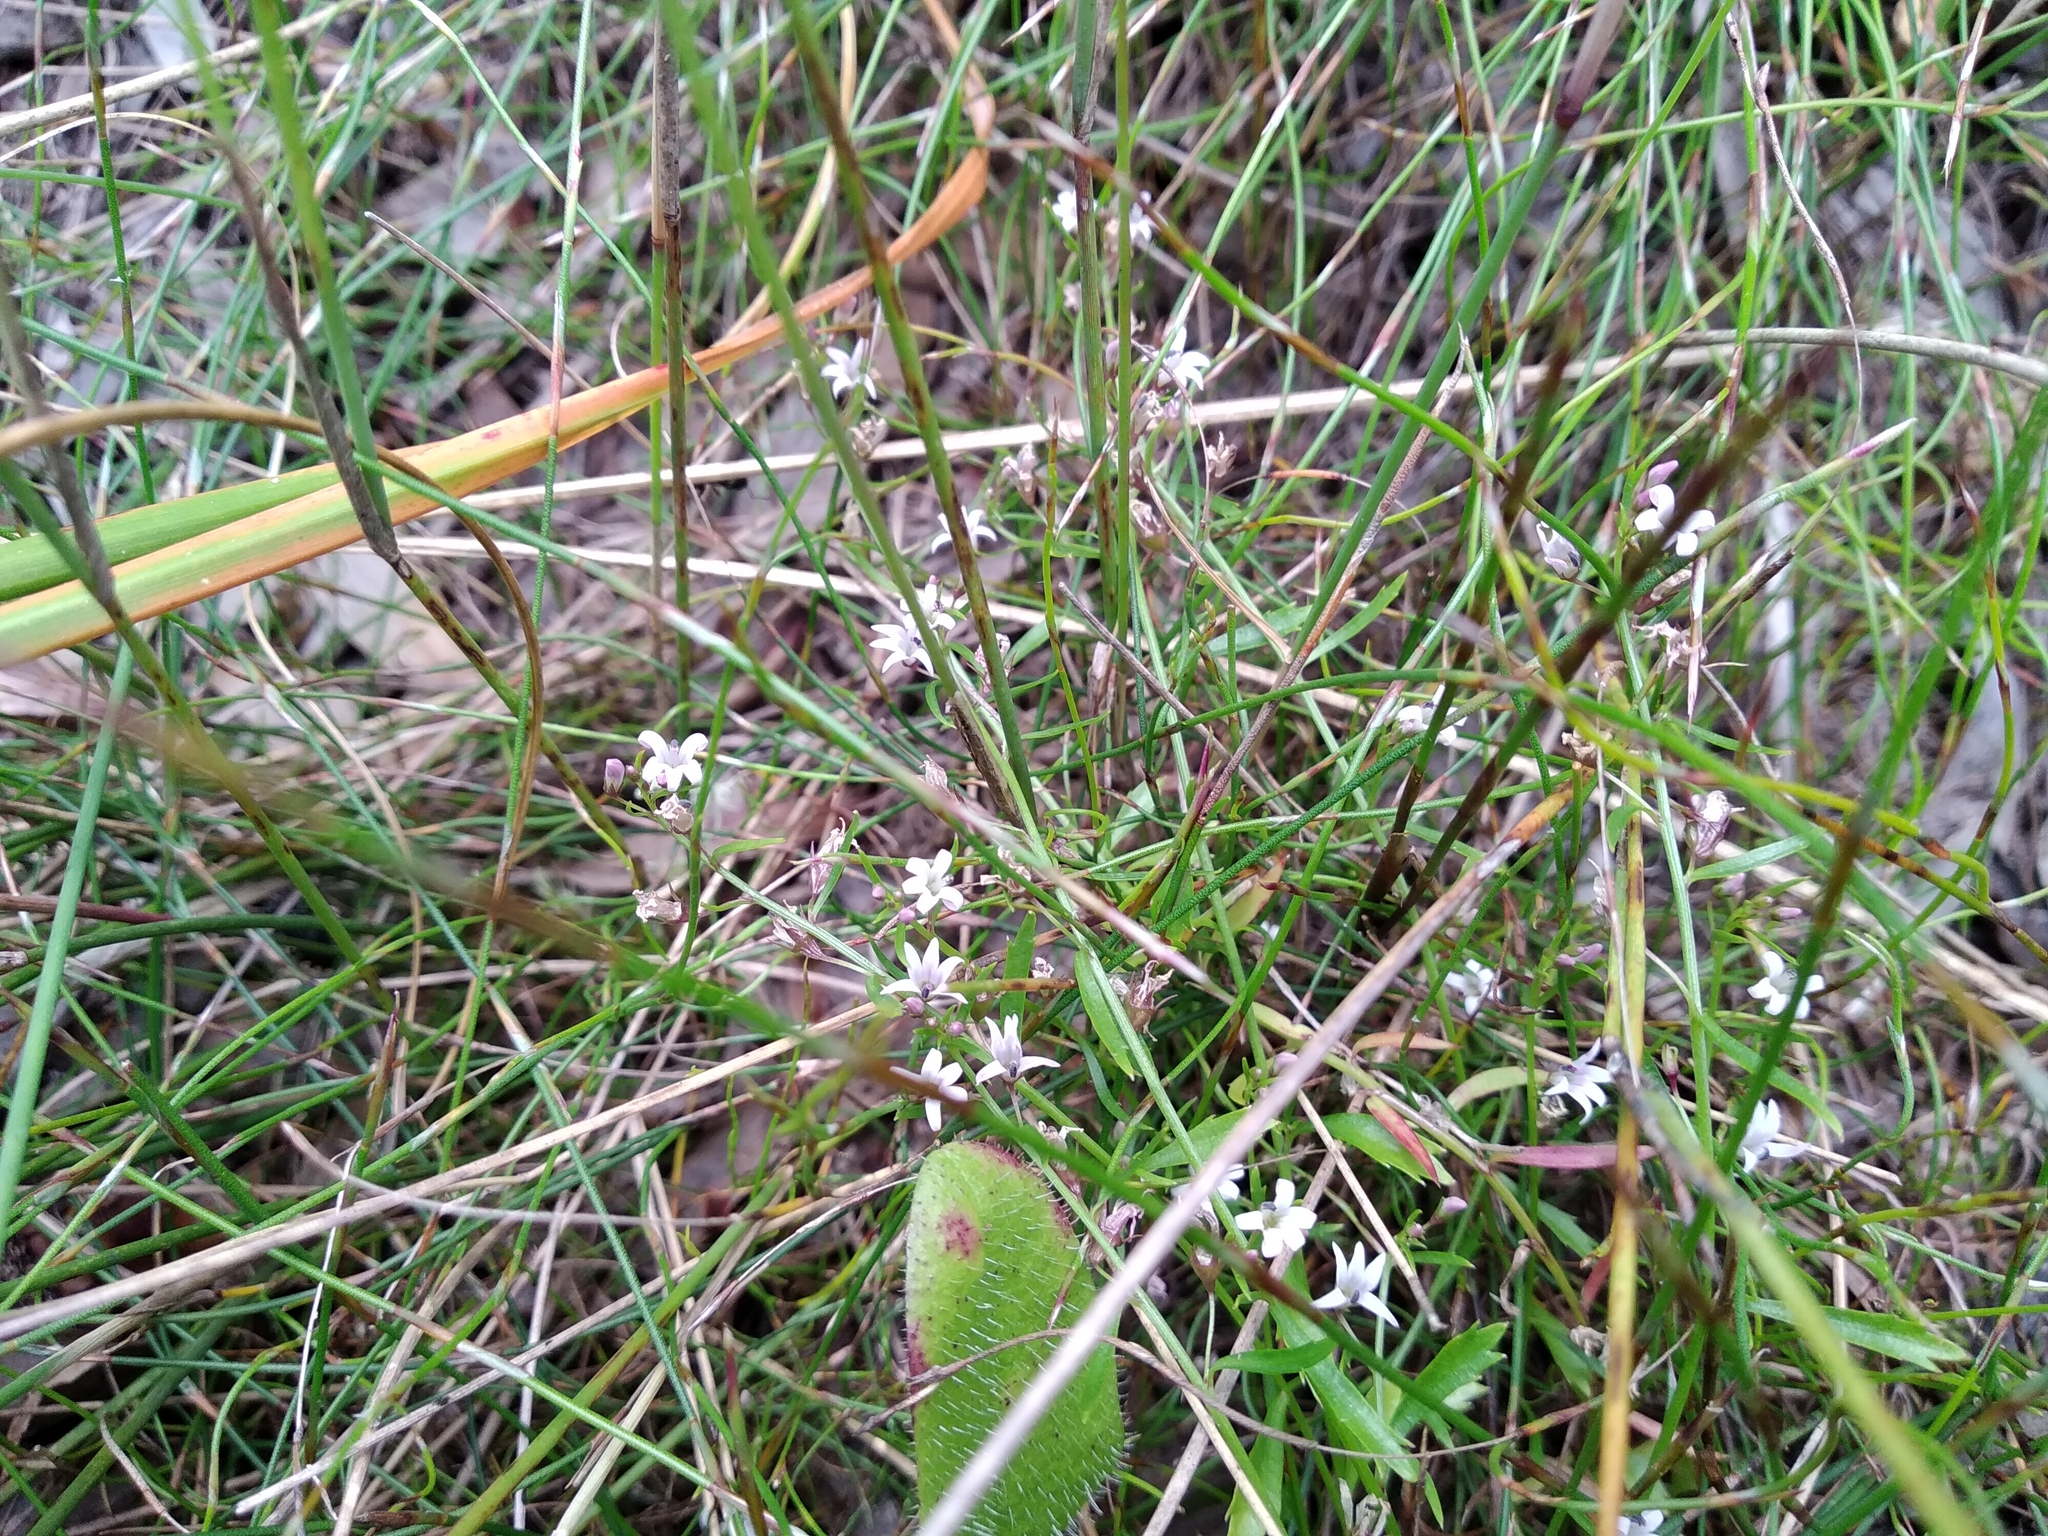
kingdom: Plantae
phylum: Tracheophyta
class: Magnoliopsida
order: Asterales
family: Campanulaceae
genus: Lobelia
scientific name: Lobelia eckloniana
